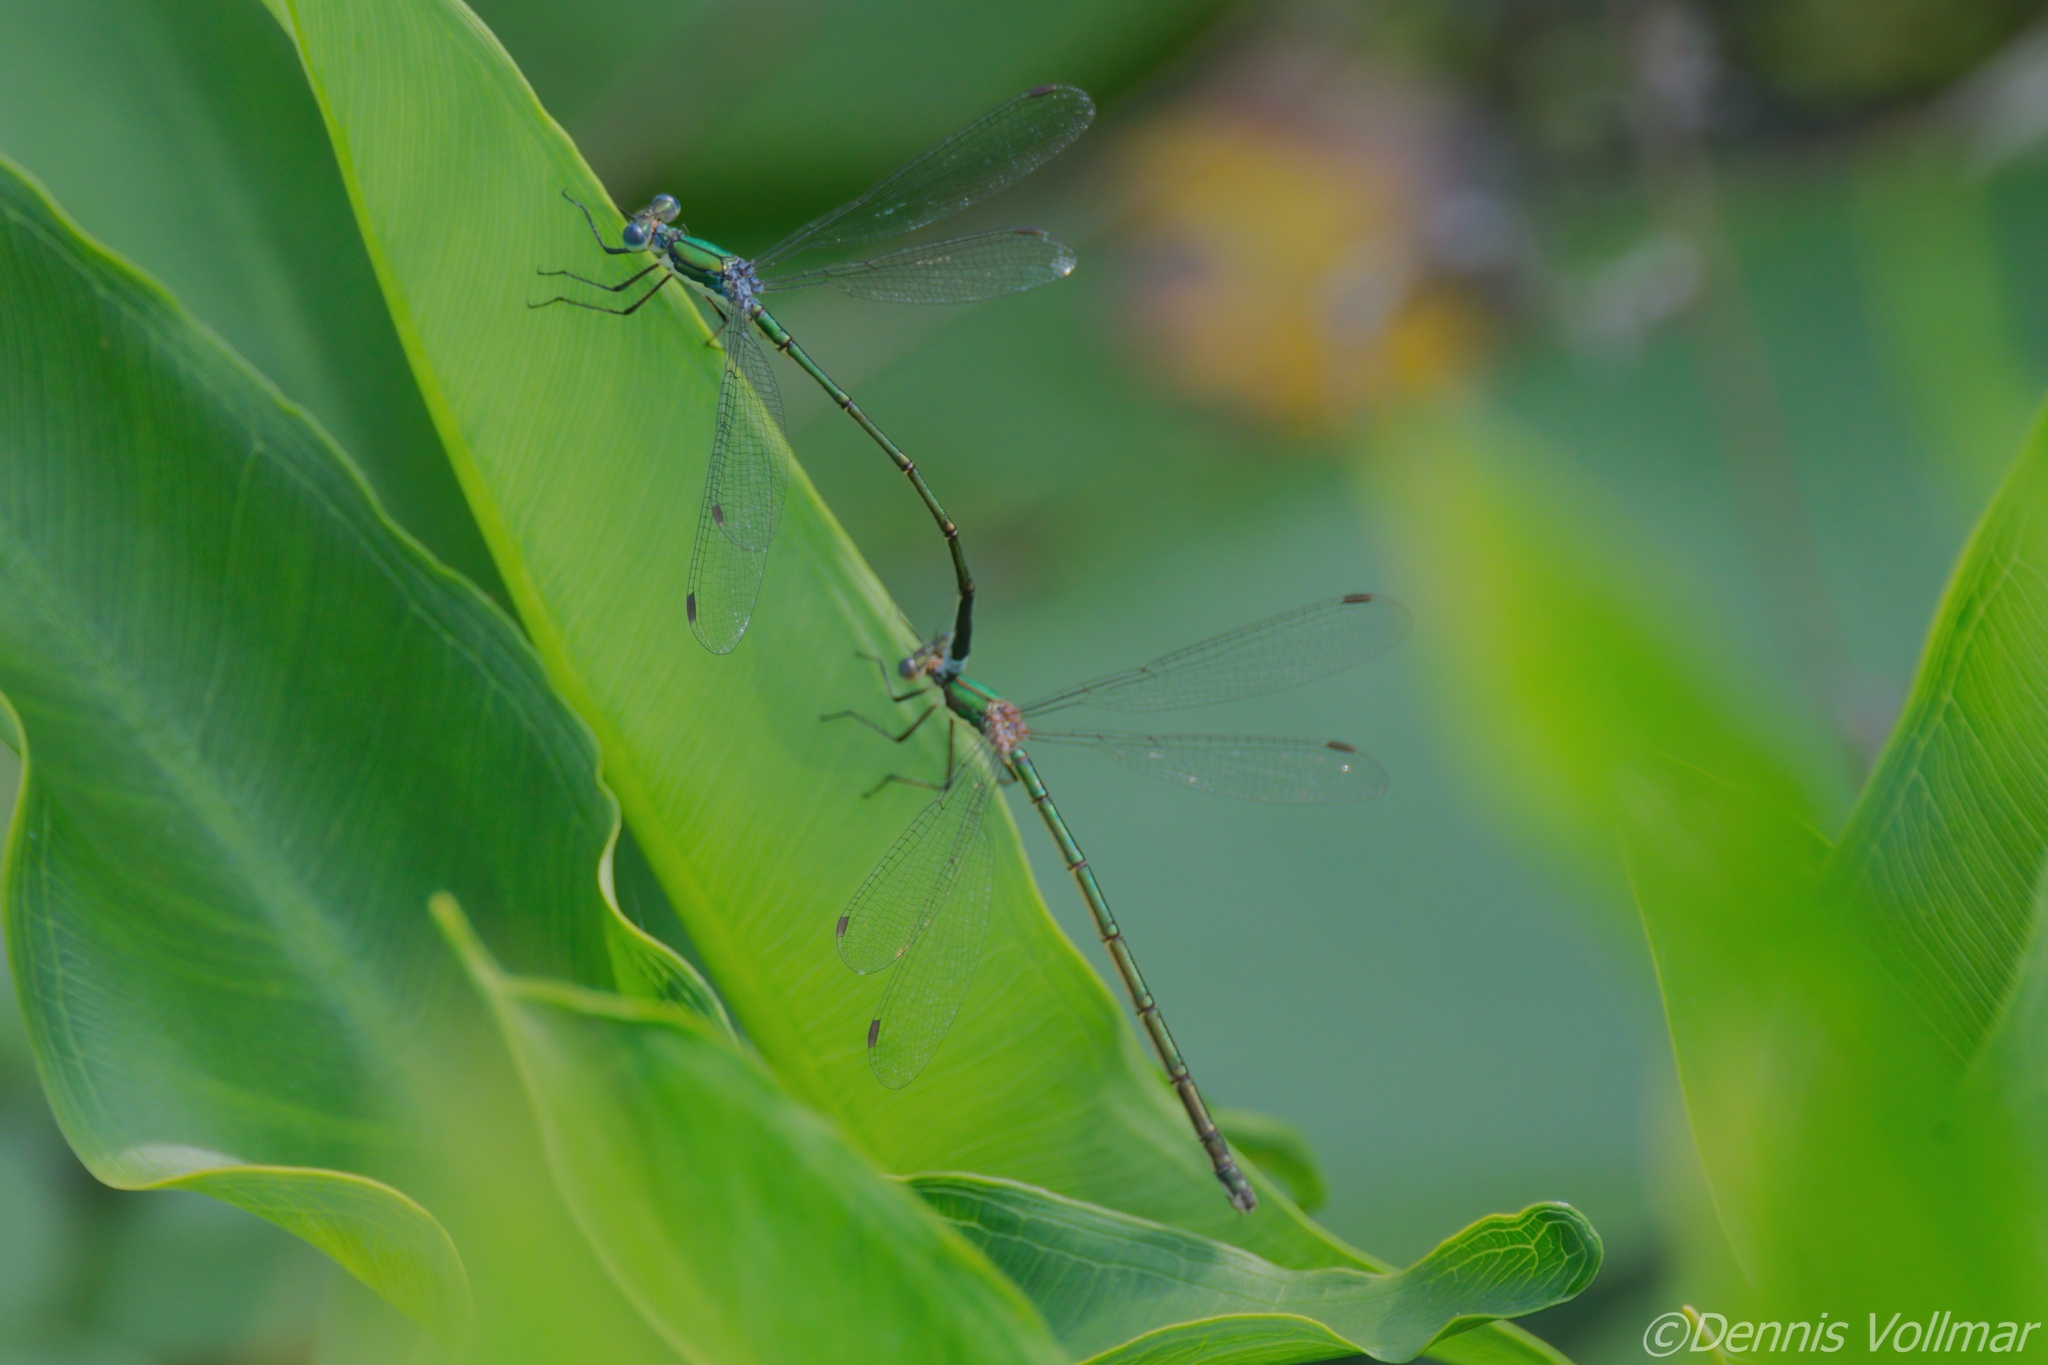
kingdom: Animalia
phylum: Arthropoda
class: Insecta
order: Odonata
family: Lestidae
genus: Lestes
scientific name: Lestes inaequalis
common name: Elegant spreadwing
